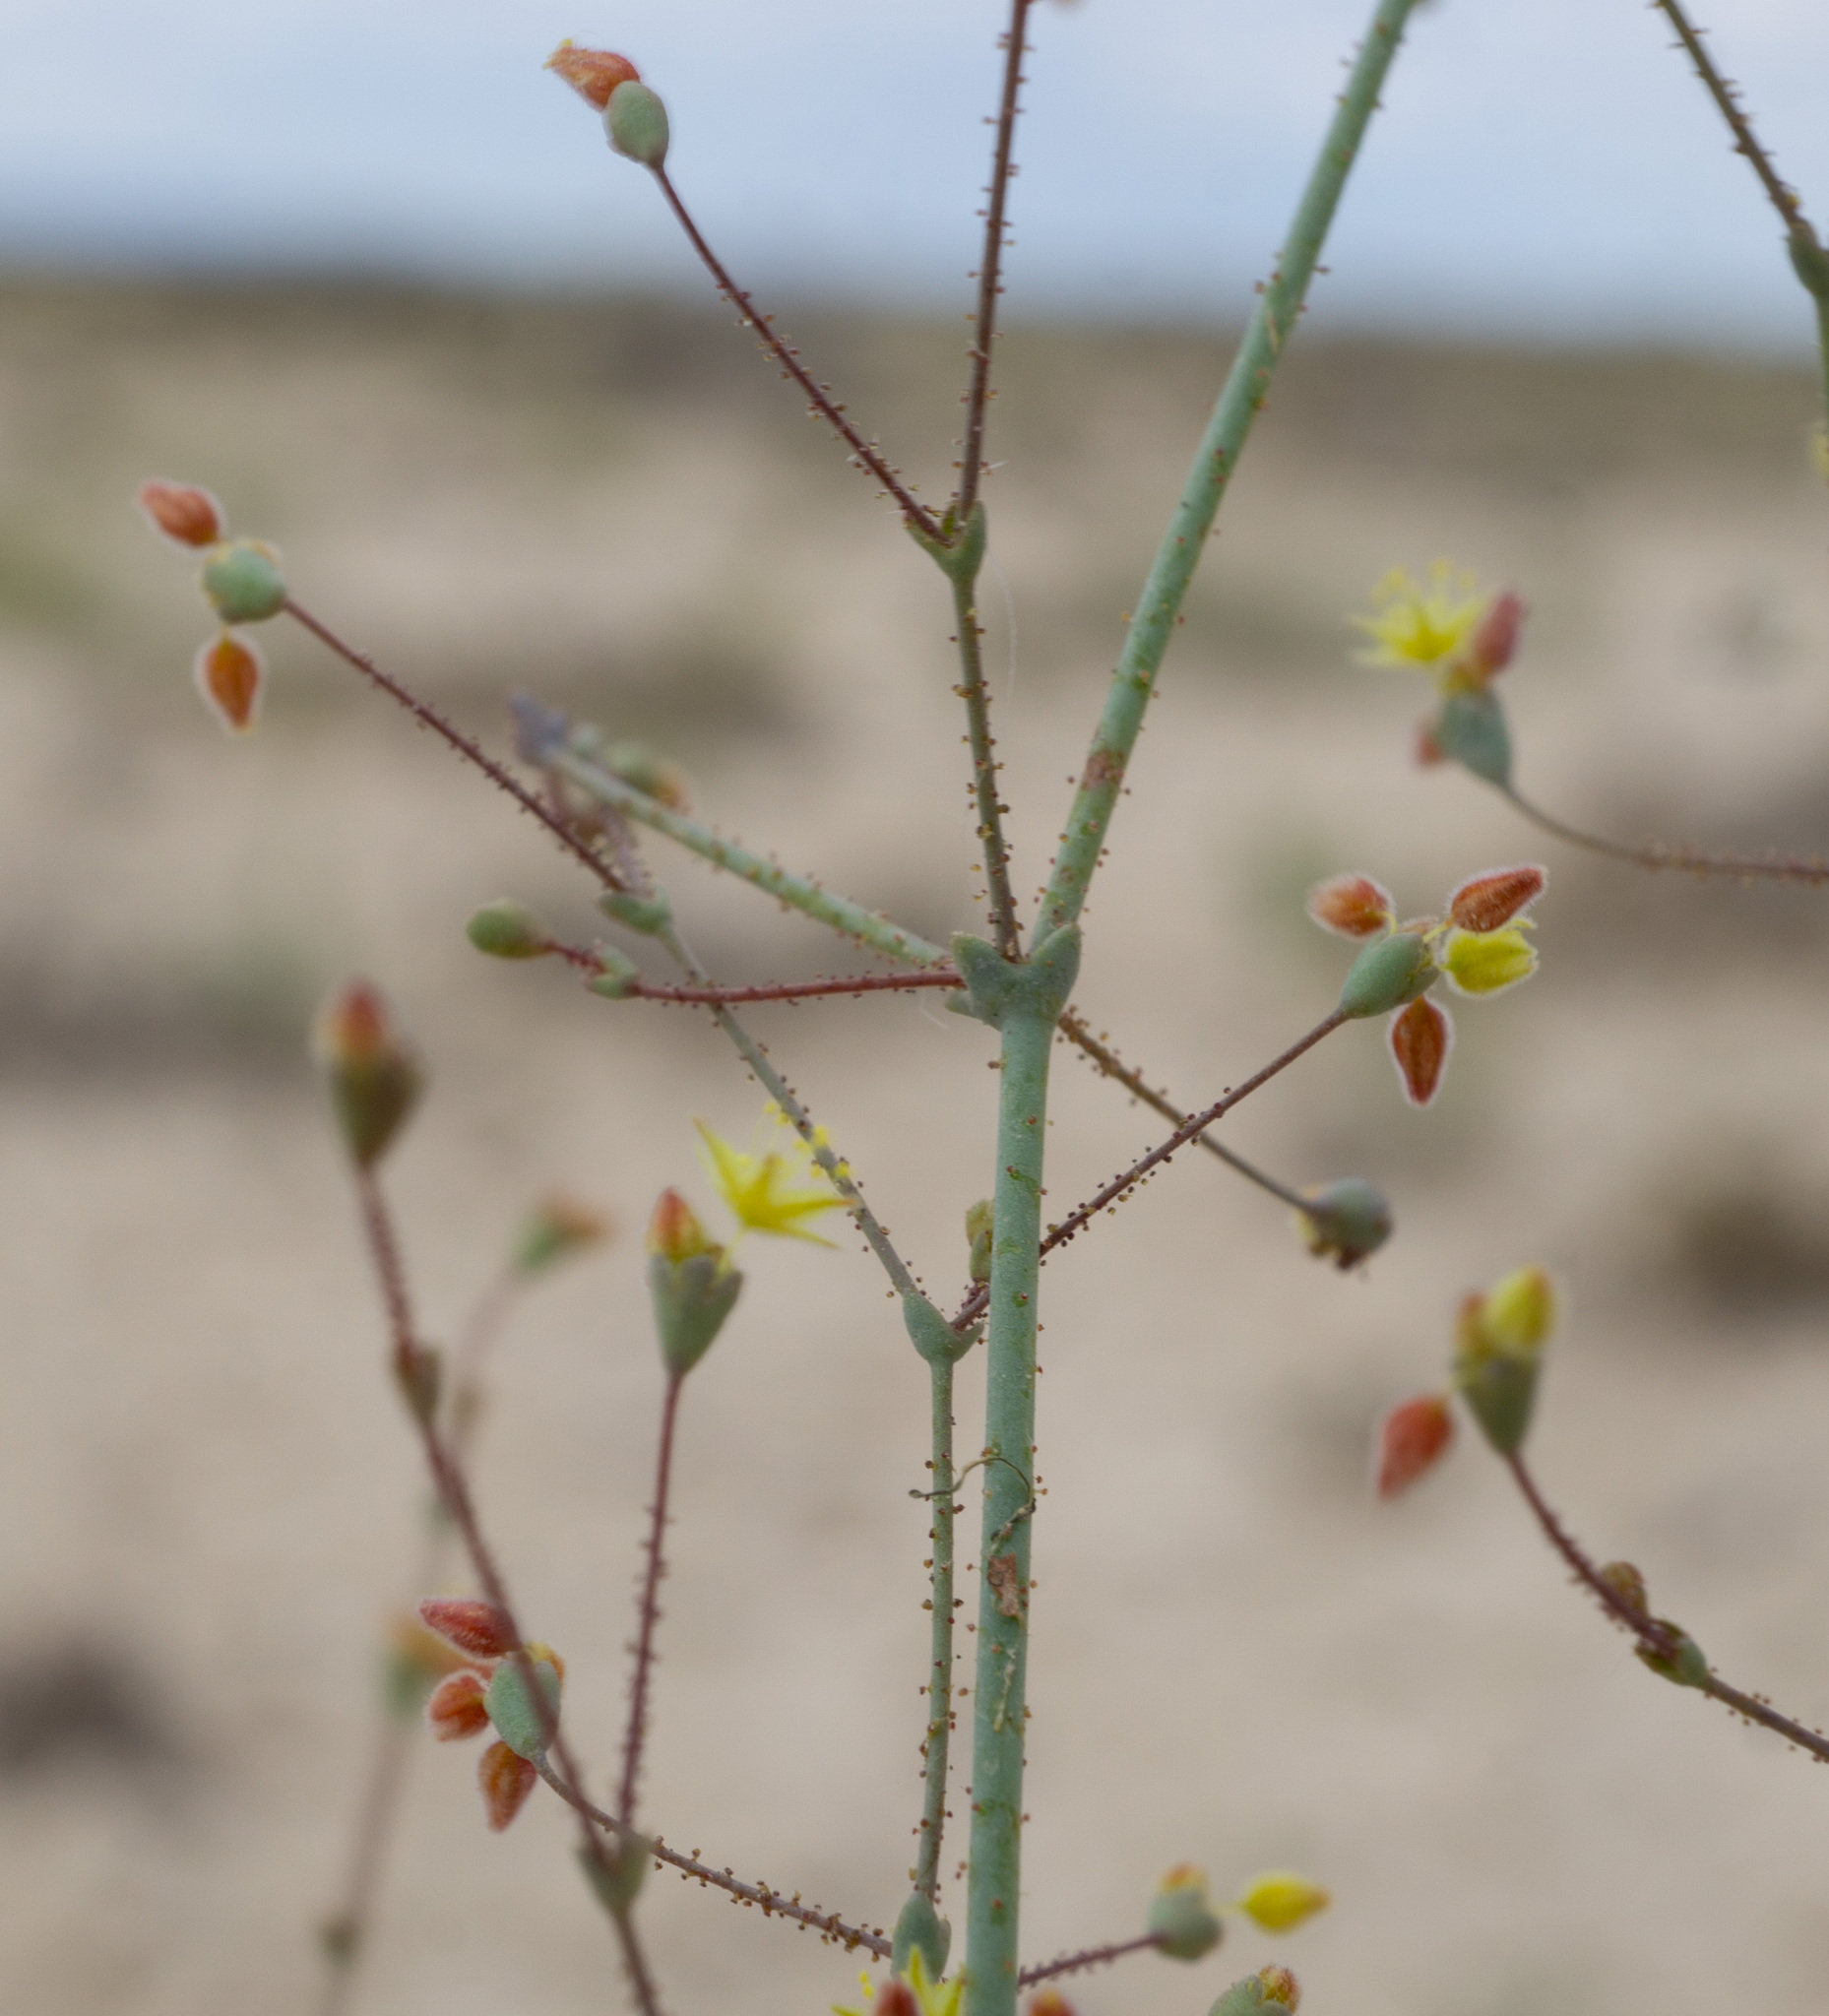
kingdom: Plantae
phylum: Tracheophyta
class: Magnoliopsida
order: Caryophyllales
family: Polygonaceae
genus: Eriogonum
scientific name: Eriogonum howellianum
